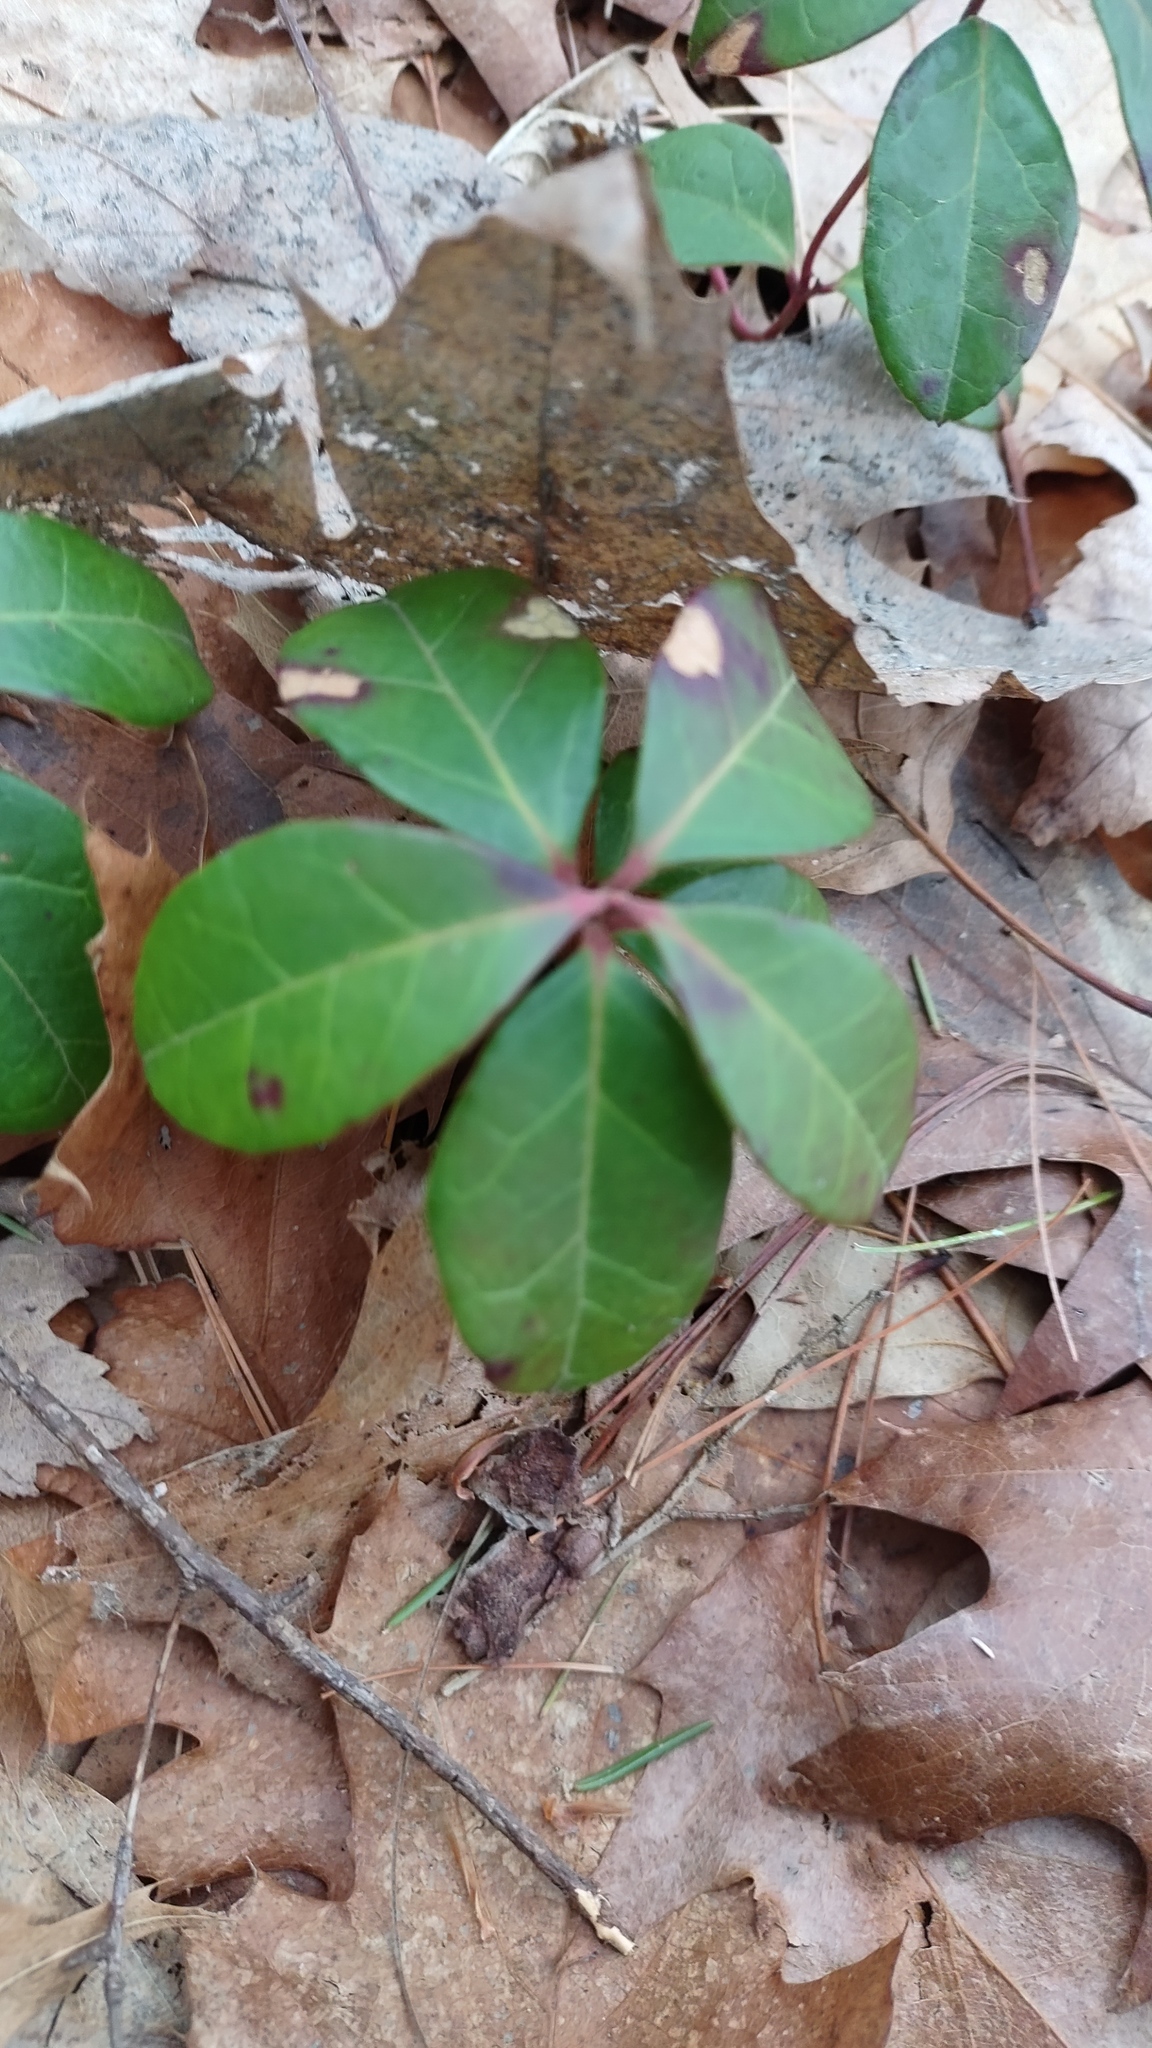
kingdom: Plantae
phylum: Tracheophyta
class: Magnoliopsida
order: Ericales
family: Ericaceae
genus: Gaultheria
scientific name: Gaultheria procumbens
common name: Checkerberry
